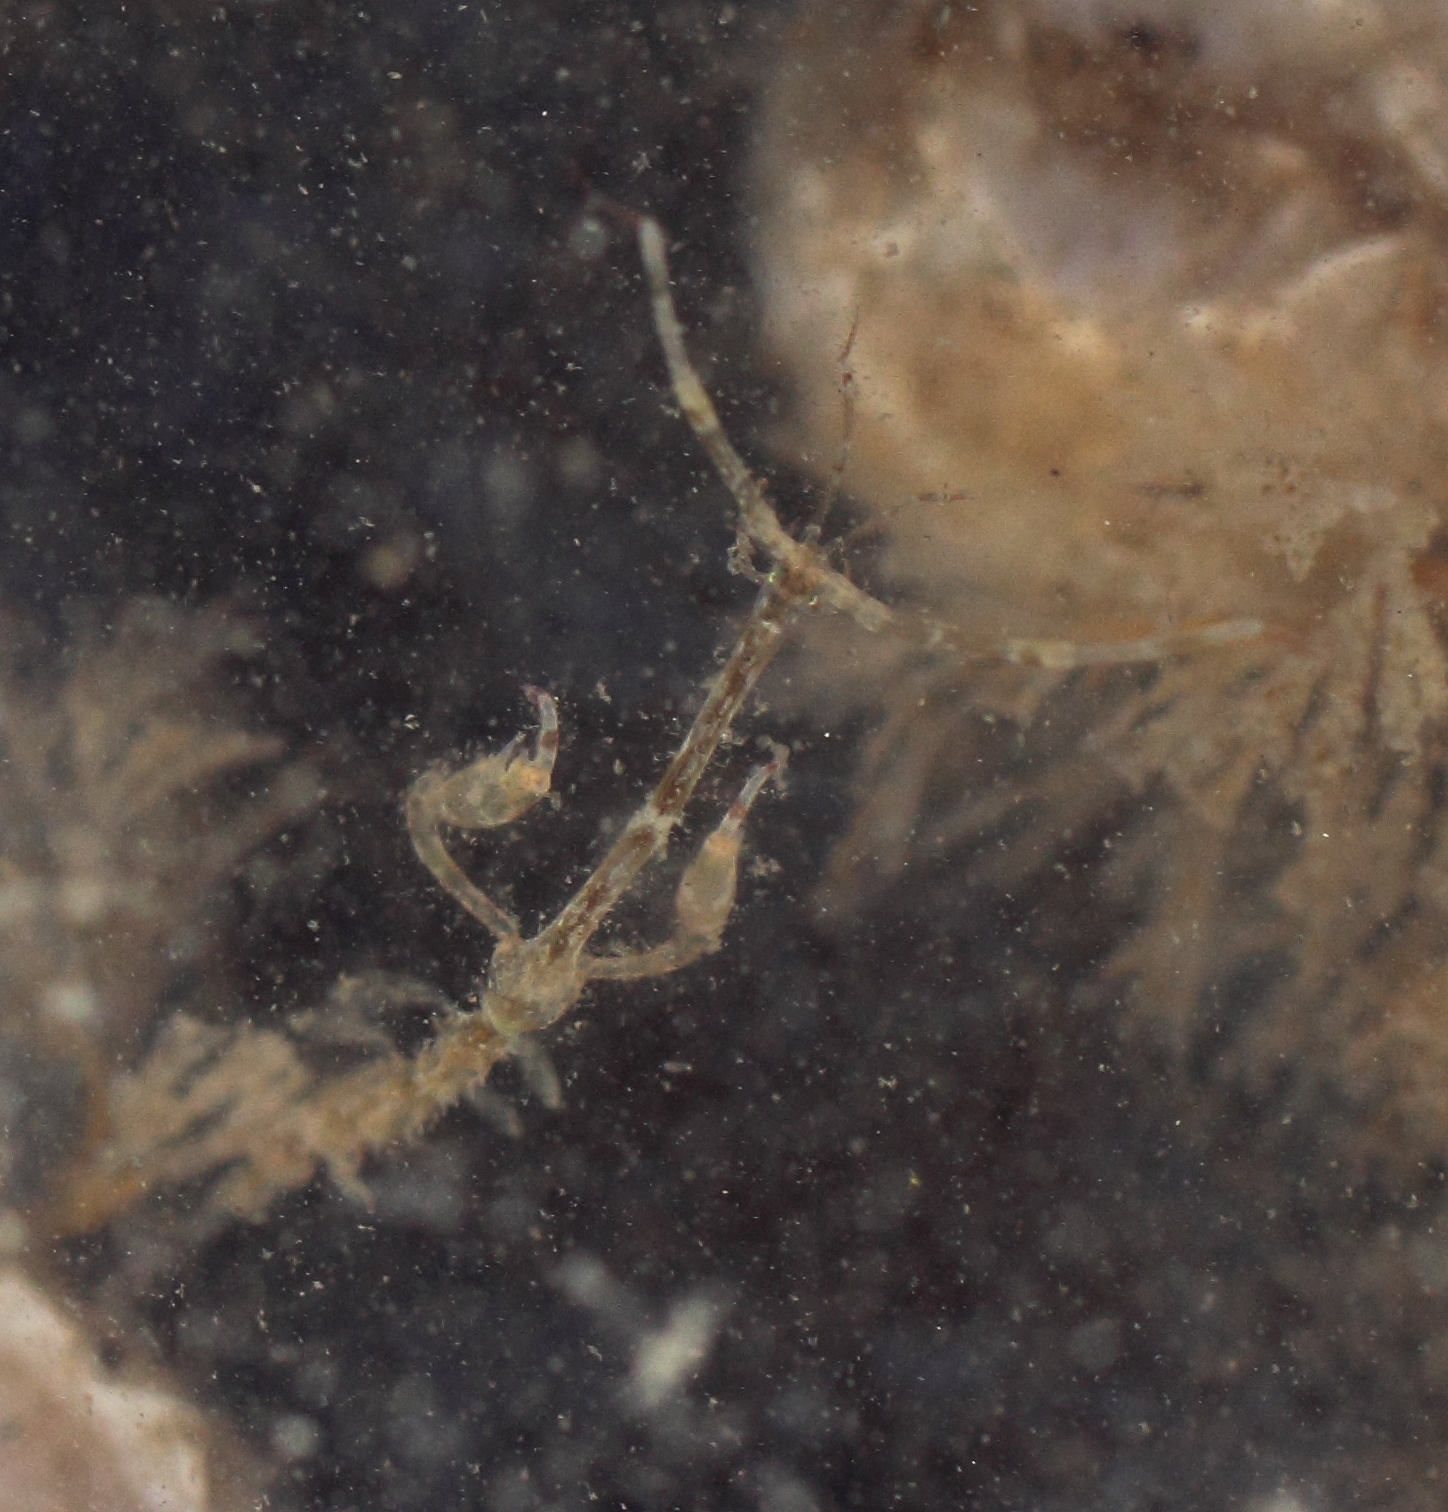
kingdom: Animalia
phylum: Arthropoda
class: Malacostraca
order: Amphipoda
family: Caprellidae
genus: Caprella
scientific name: Caprella alaskana
